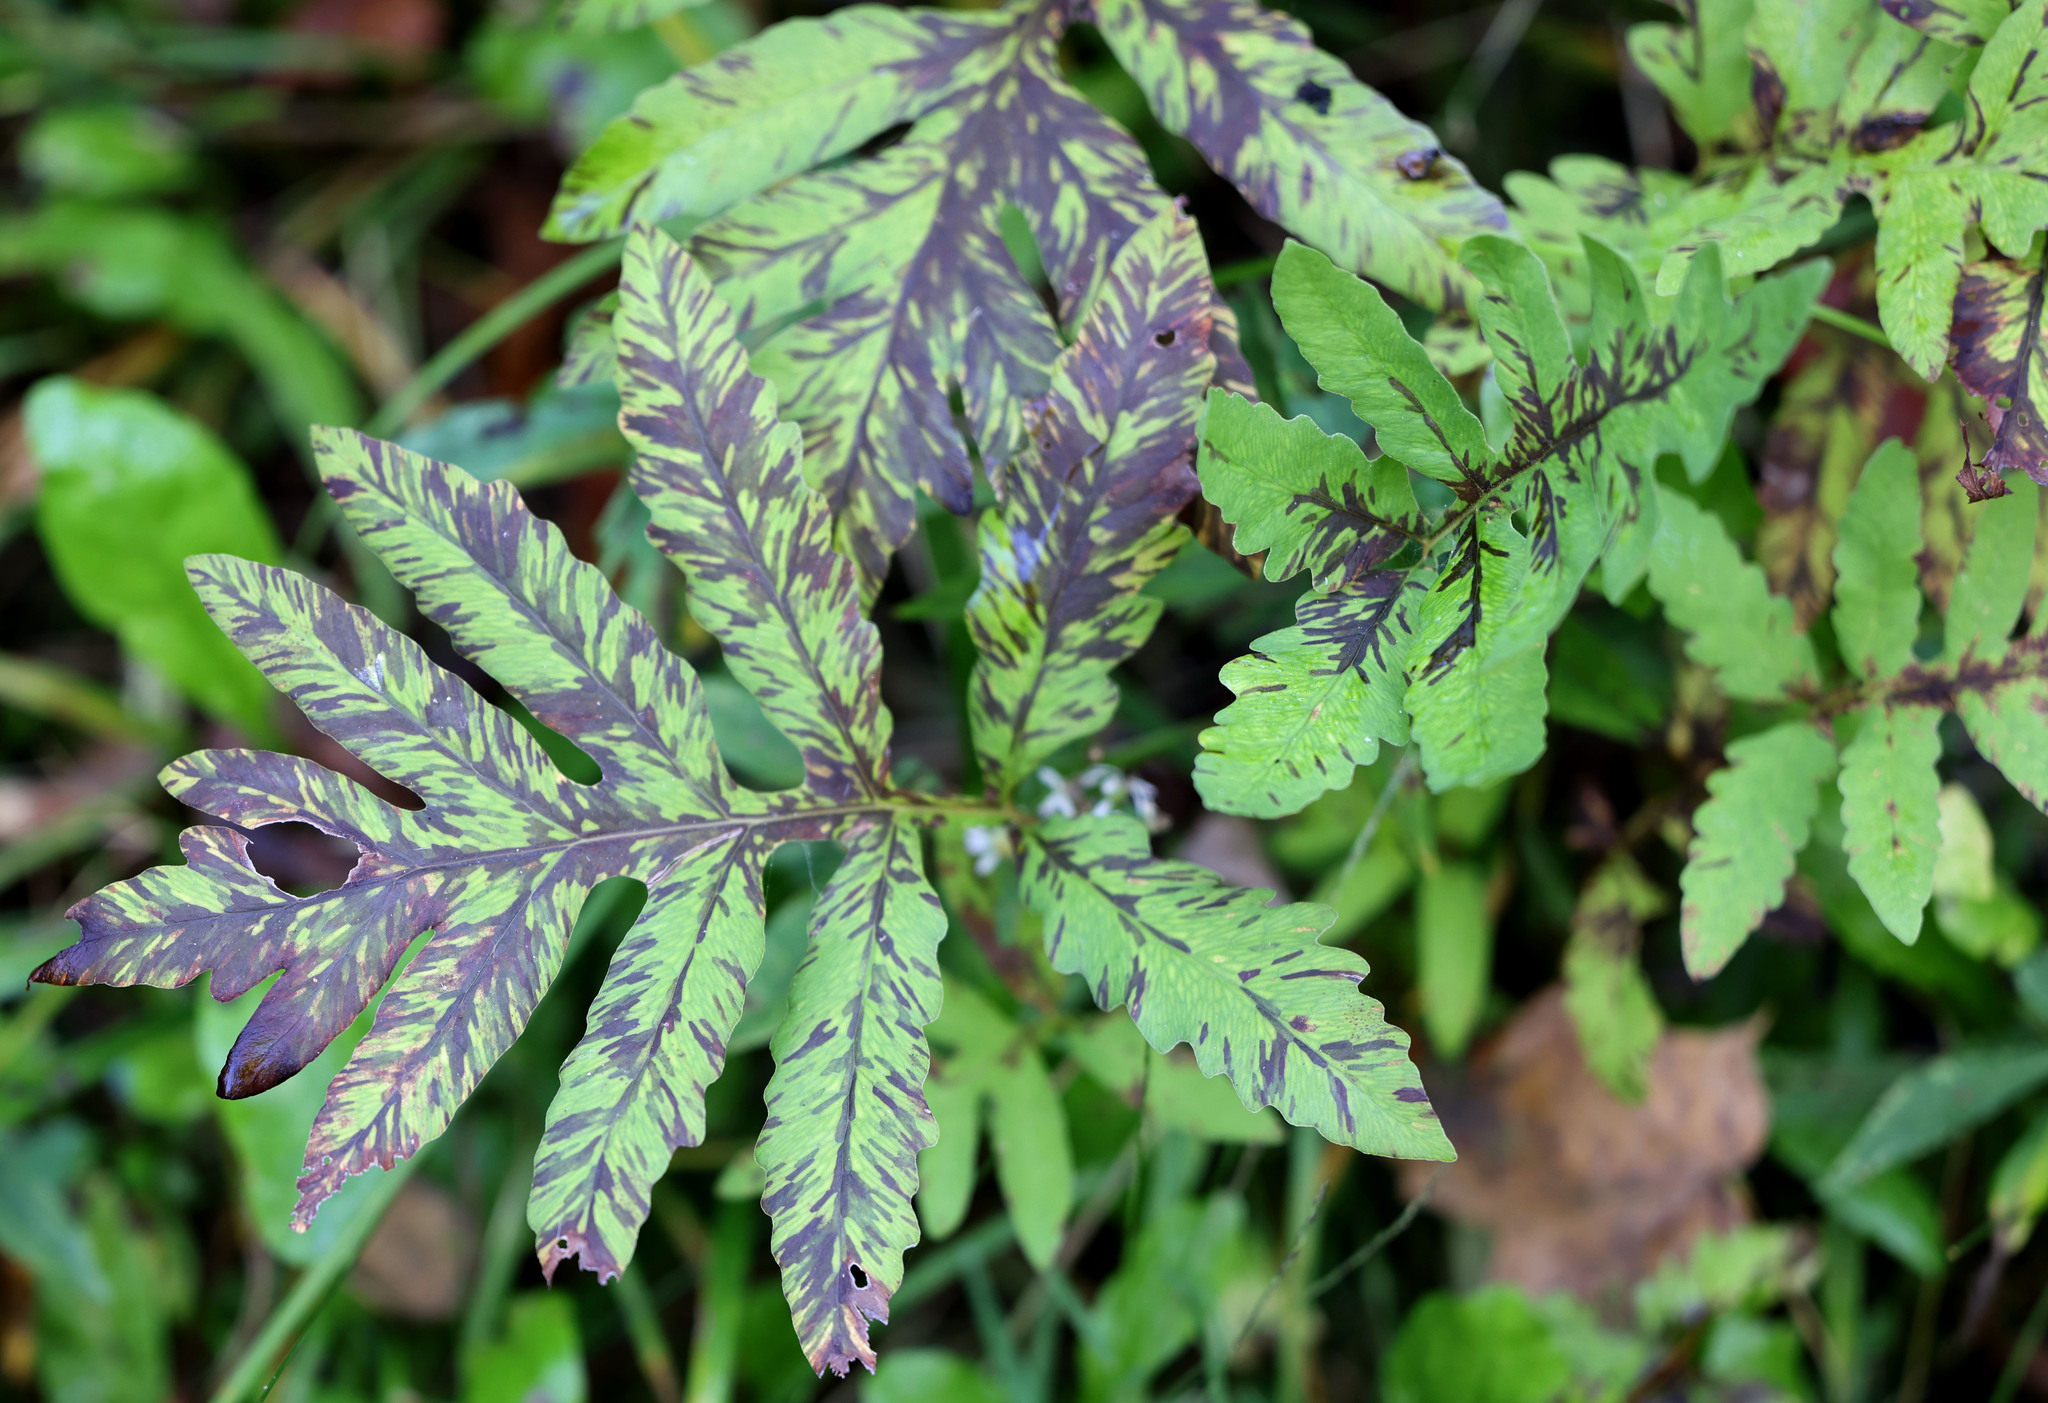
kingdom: Plantae
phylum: Tracheophyta
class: Polypodiopsida
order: Polypodiales
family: Onocleaceae
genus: Onoclea
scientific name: Onoclea sensibilis
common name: Sensitive fern
